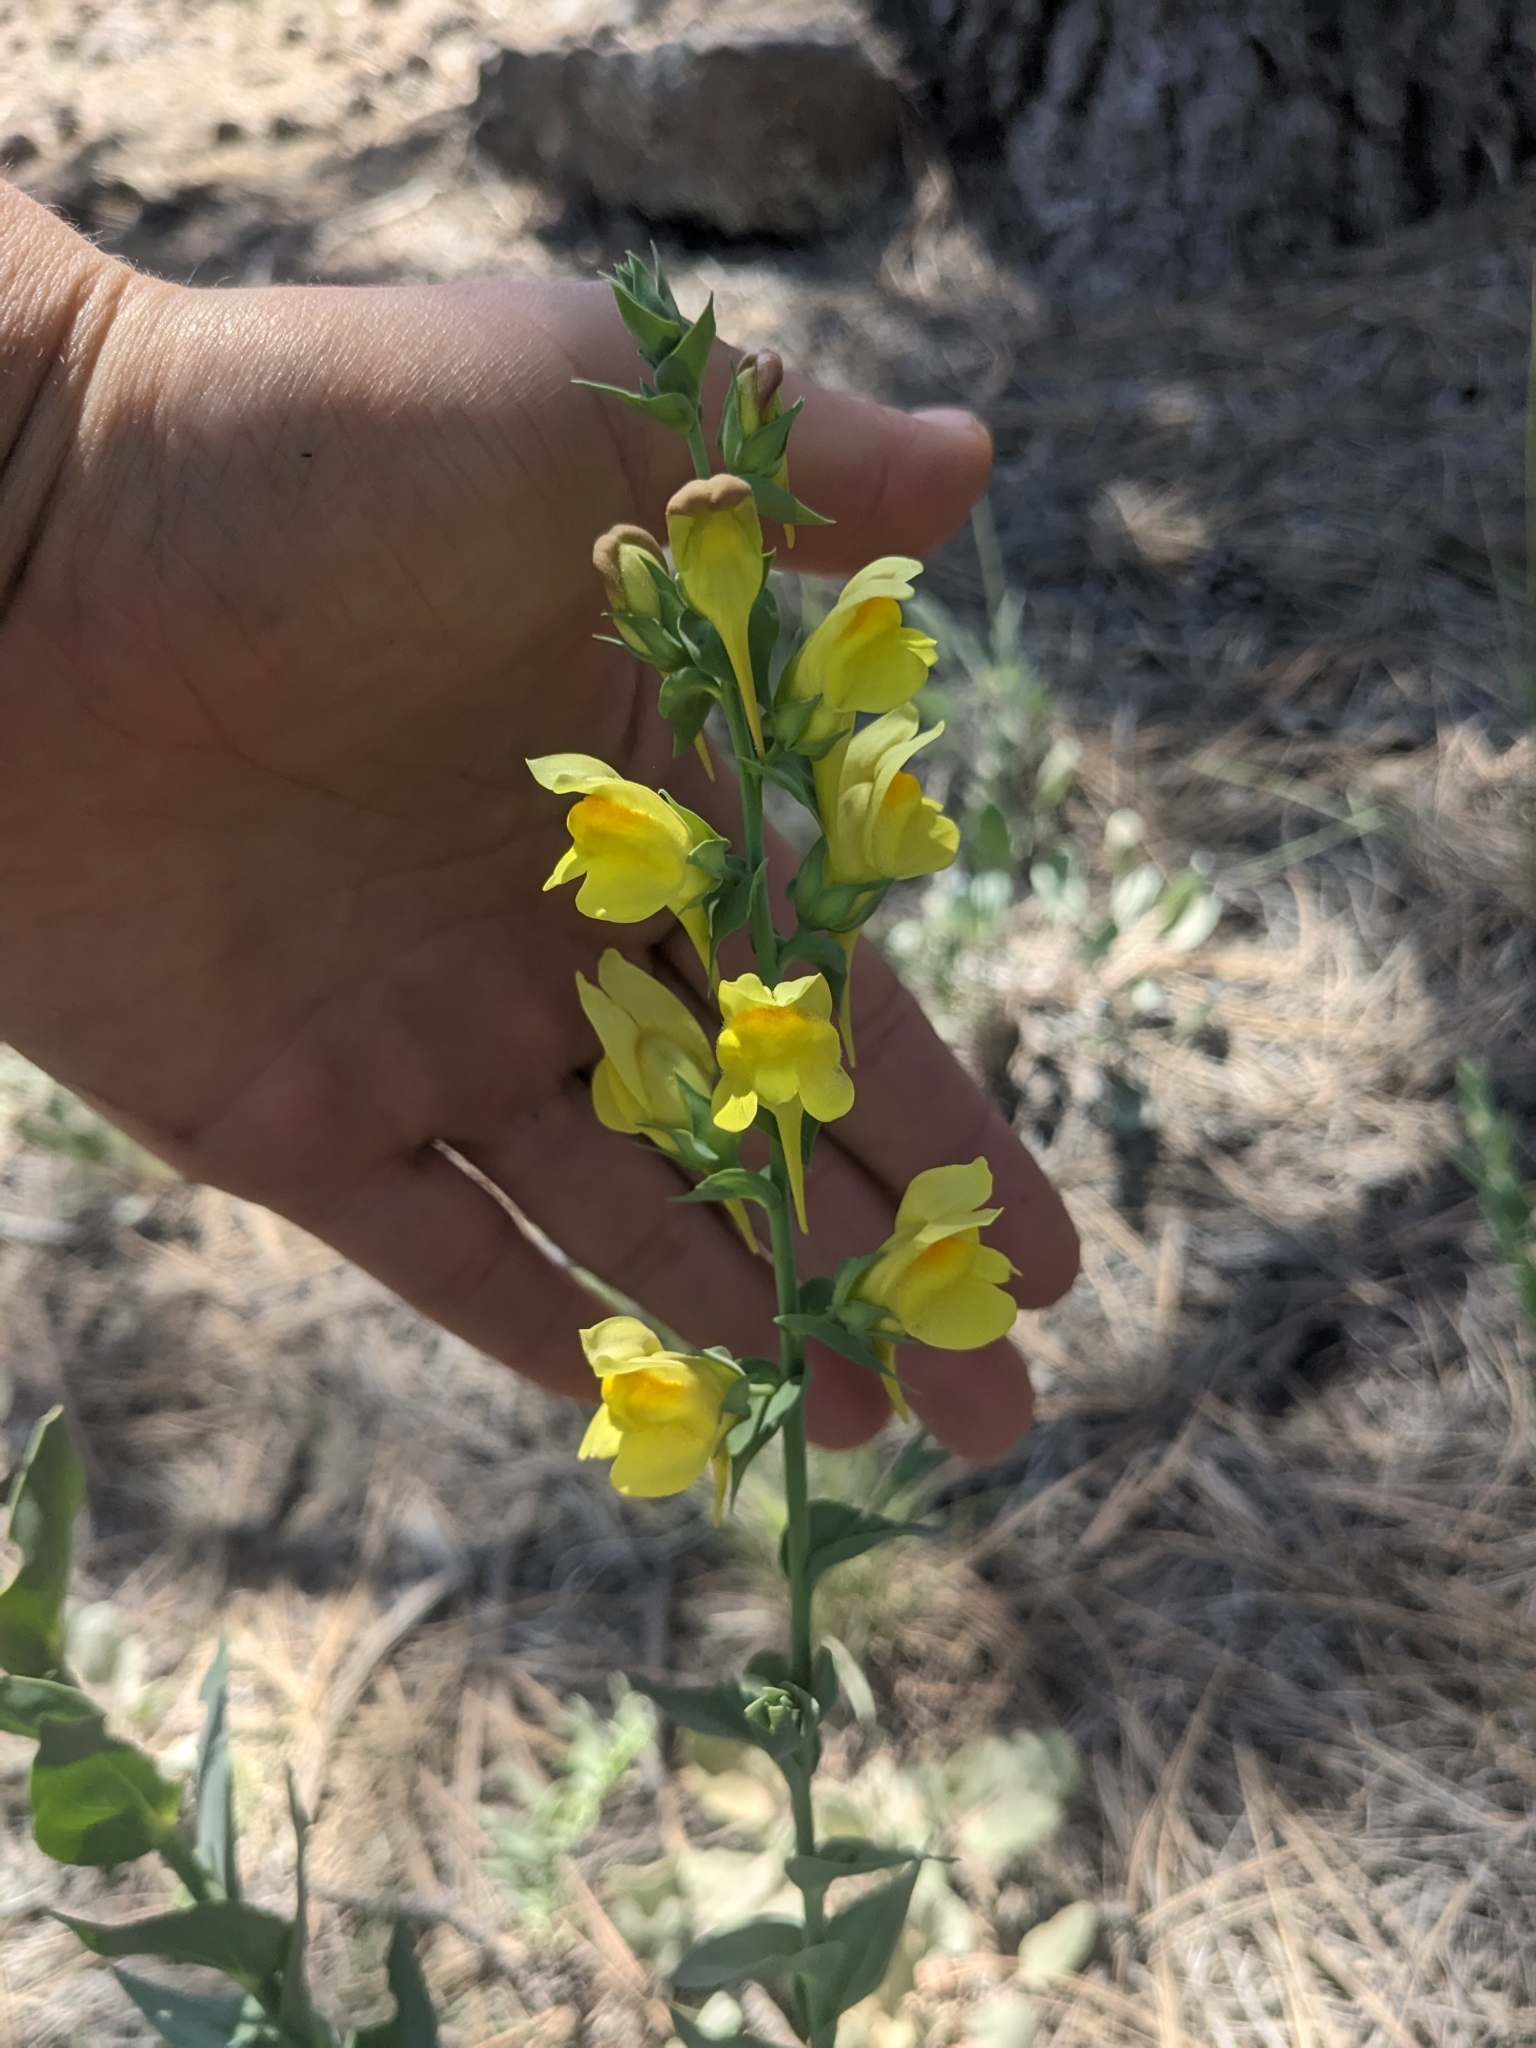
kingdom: Plantae
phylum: Tracheophyta
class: Magnoliopsida
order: Lamiales
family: Plantaginaceae
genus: Linaria
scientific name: Linaria dalmatica
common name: Dalmatian toadflax
